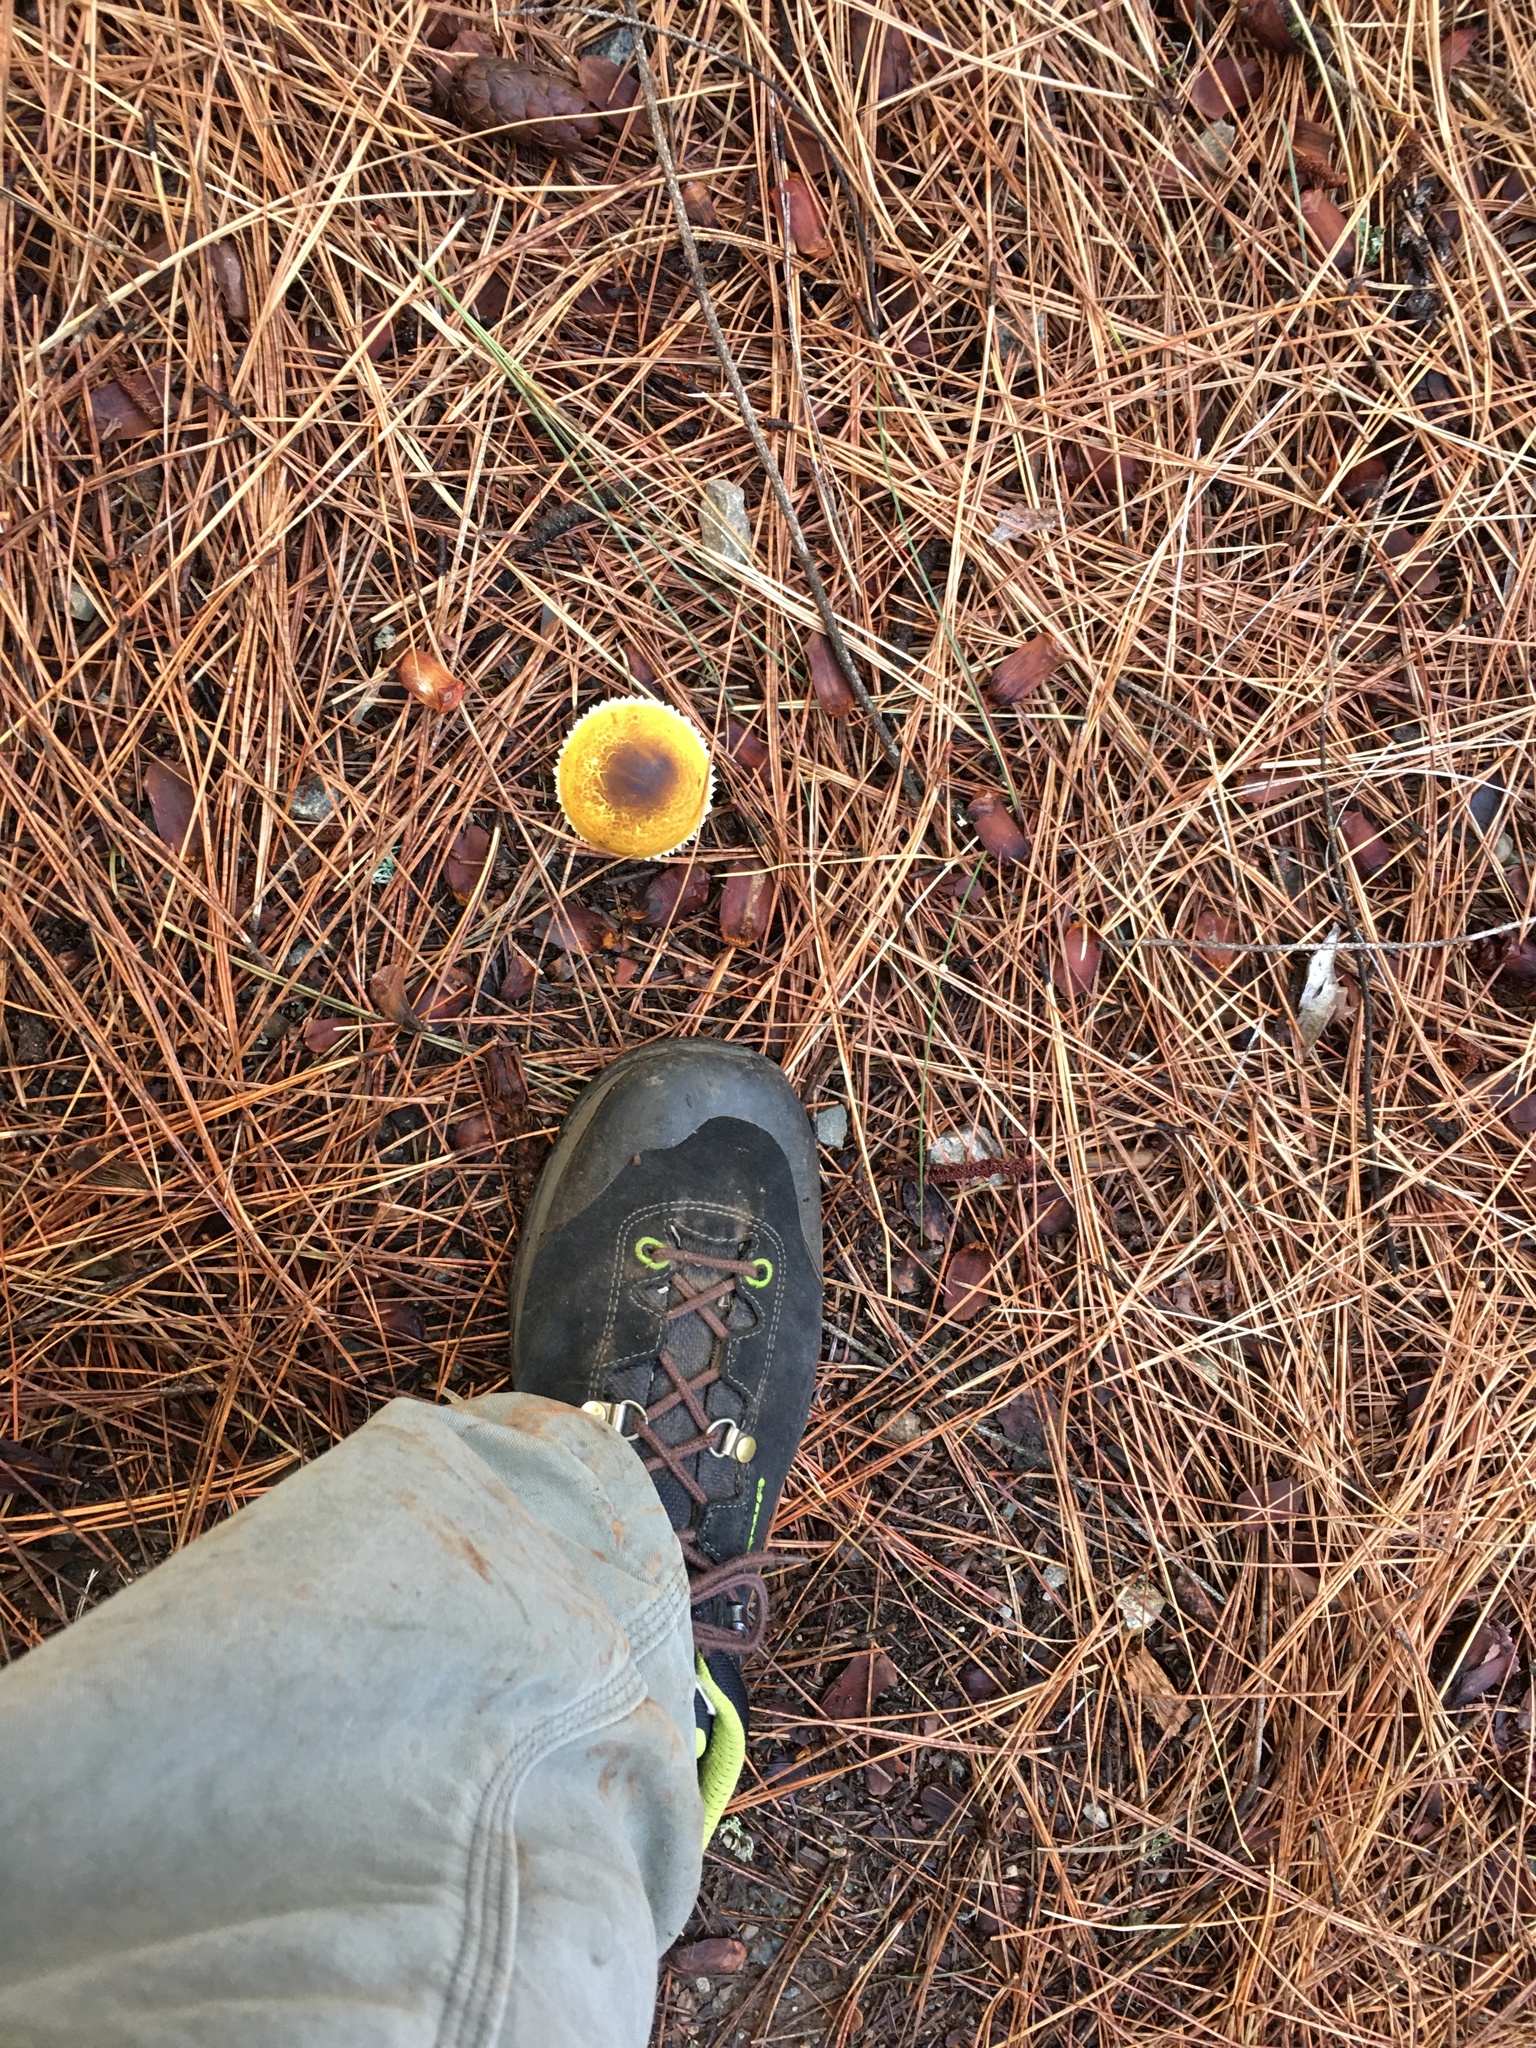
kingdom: Fungi
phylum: Basidiomycota
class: Agaricomycetes
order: Agaricales
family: Agaricaceae
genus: Floccularia
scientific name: Floccularia albolanaripes
